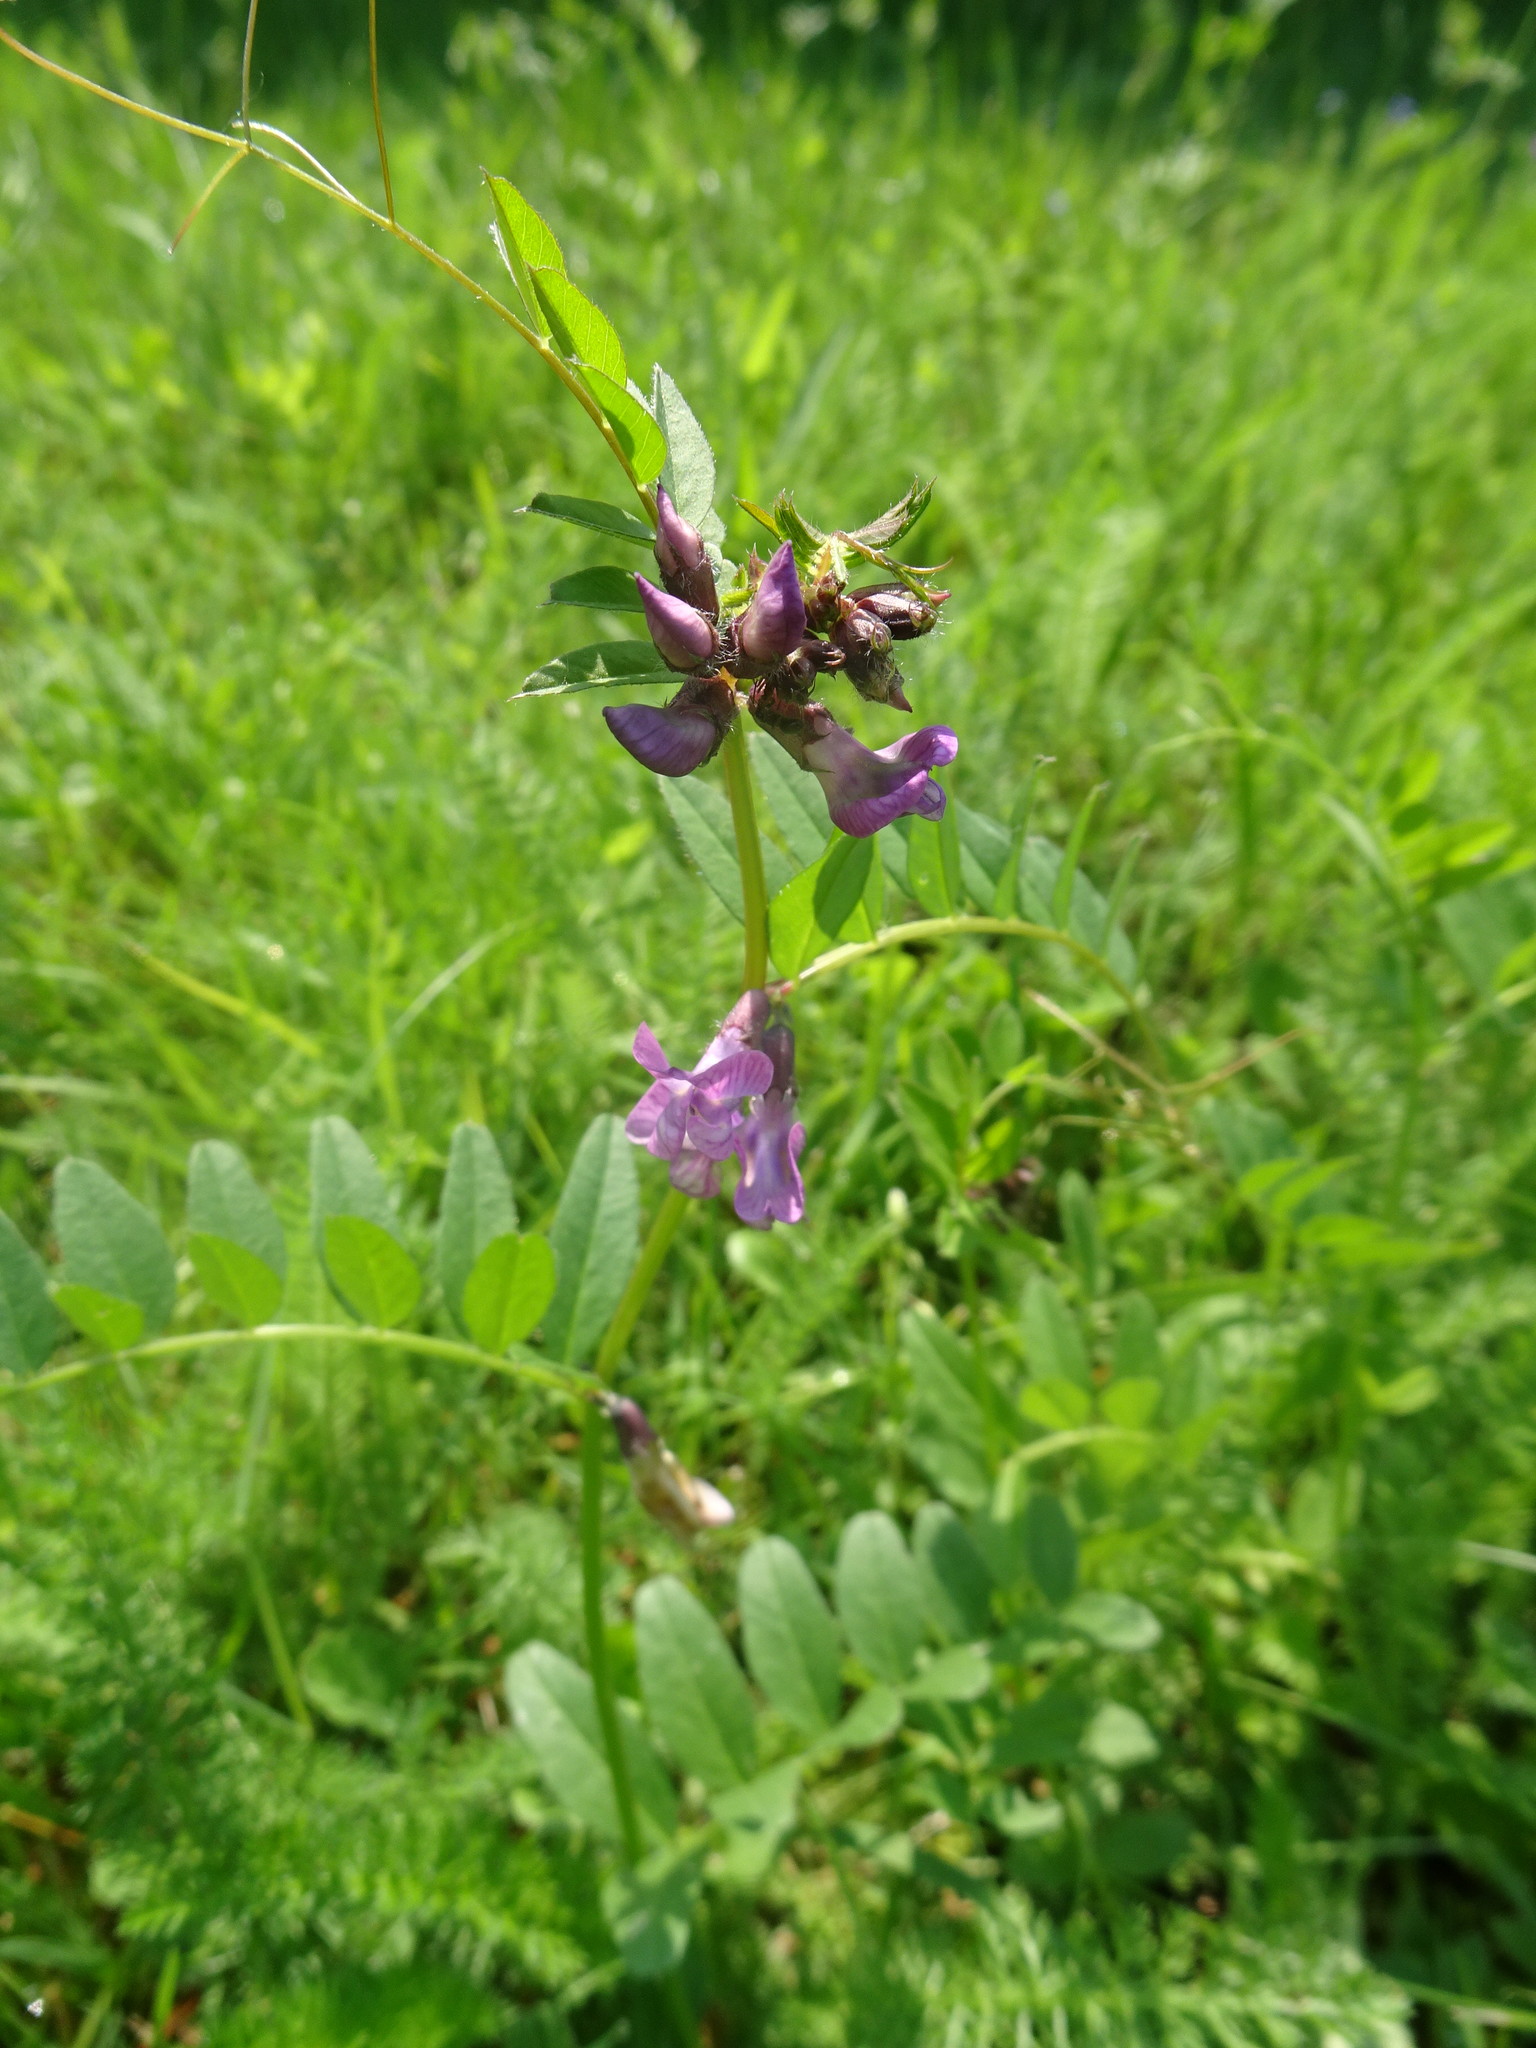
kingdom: Plantae
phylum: Tracheophyta
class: Magnoliopsida
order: Fabales
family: Fabaceae
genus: Vicia
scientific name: Vicia sepium
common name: Bush vetch
